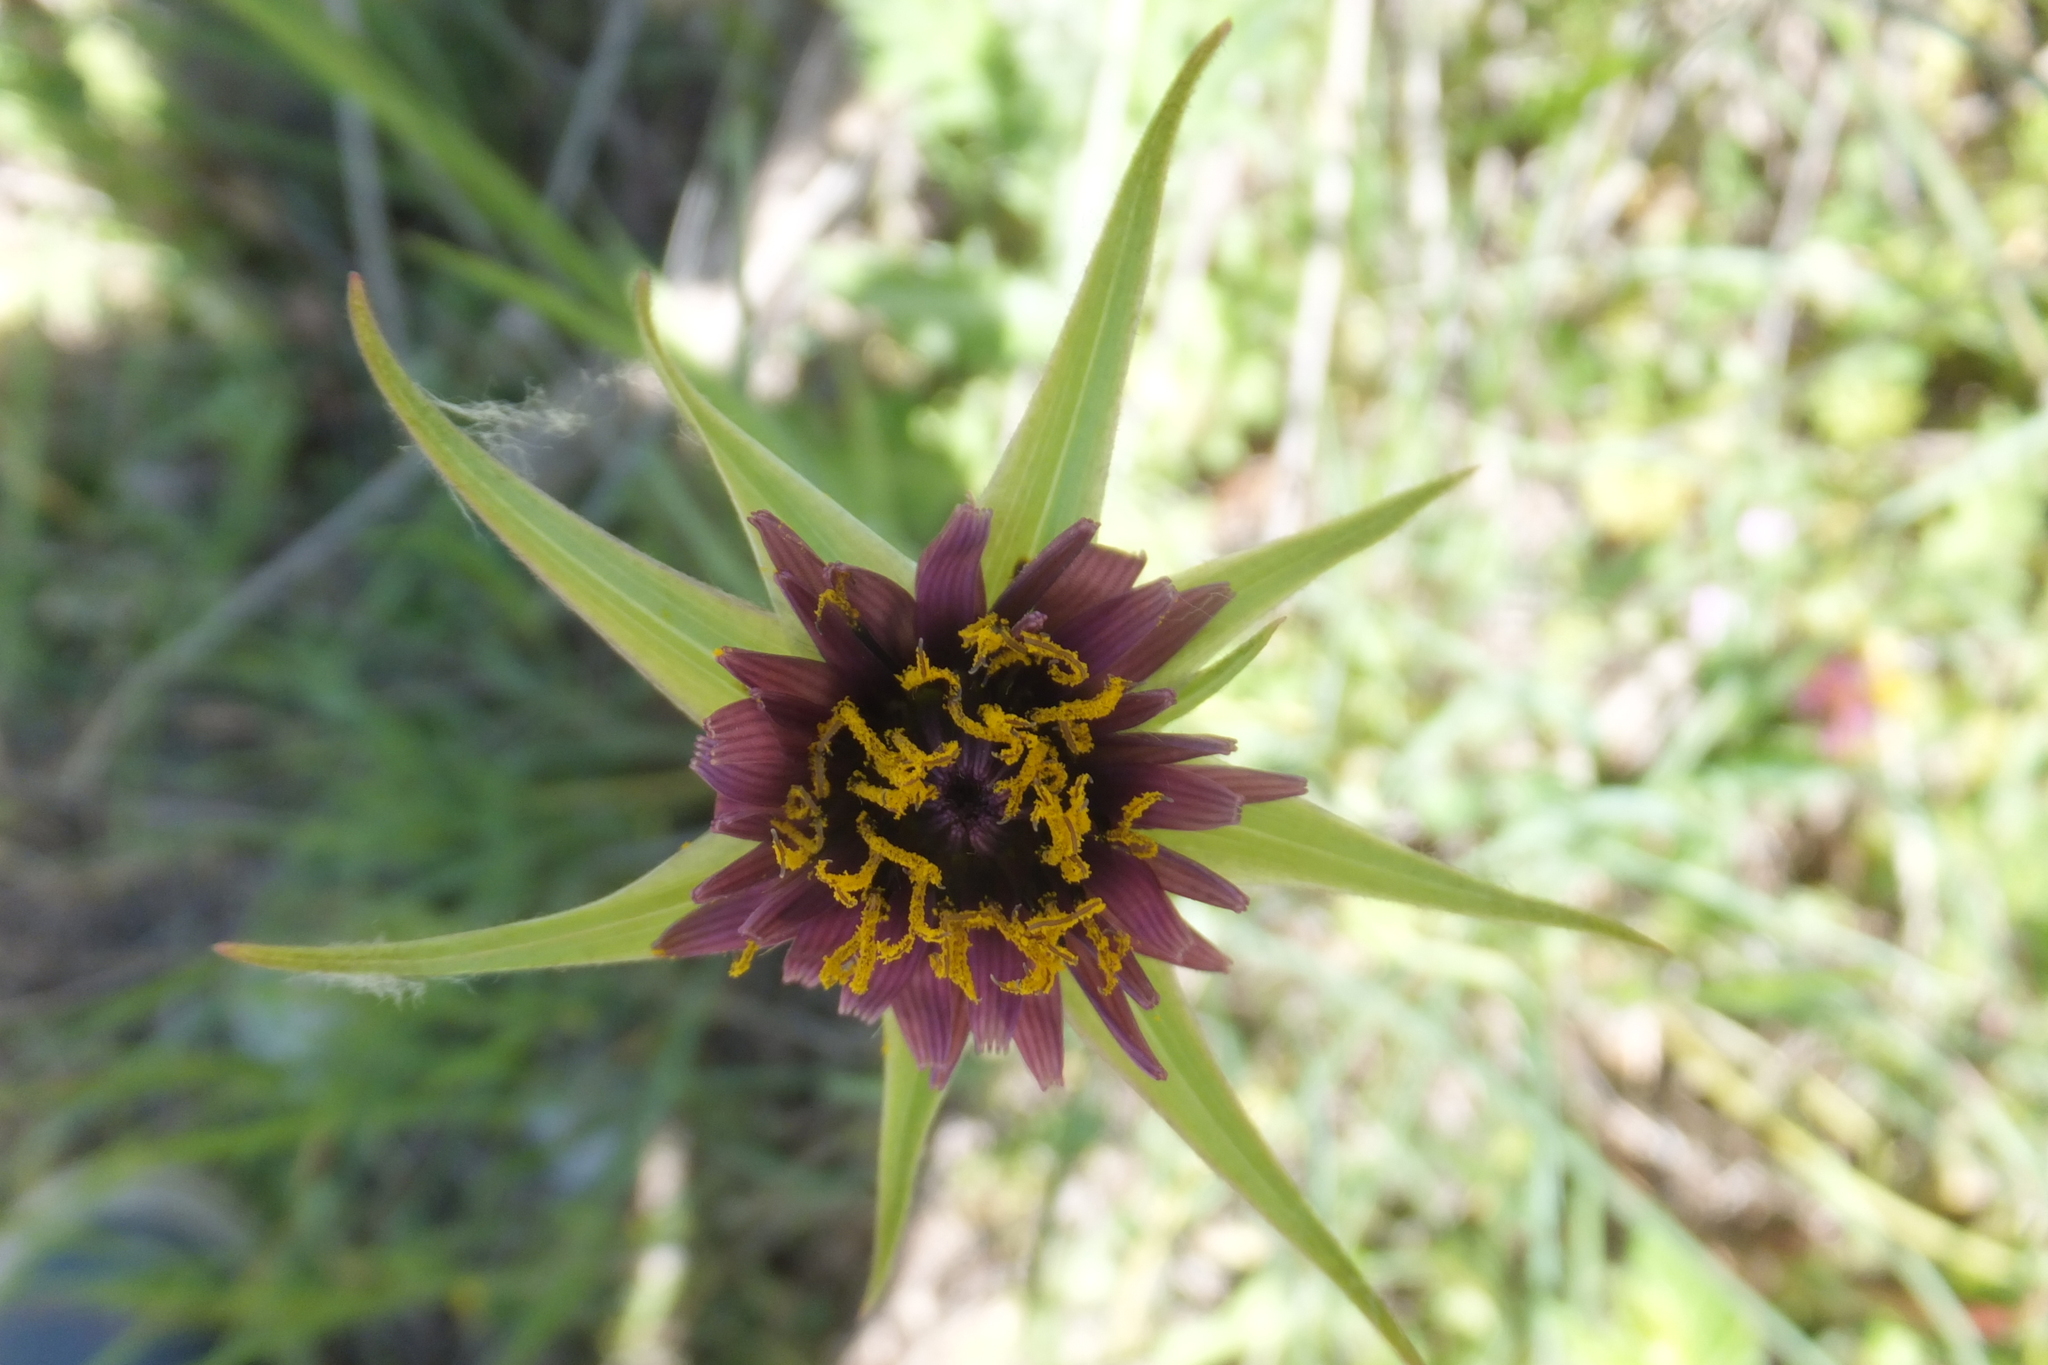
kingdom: Plantae
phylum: Tracheophyta
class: Magnoliopsida
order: Asterales
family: Asteraceae
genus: Tragopogon
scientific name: Tragopogon porrifolius
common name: Salsify
